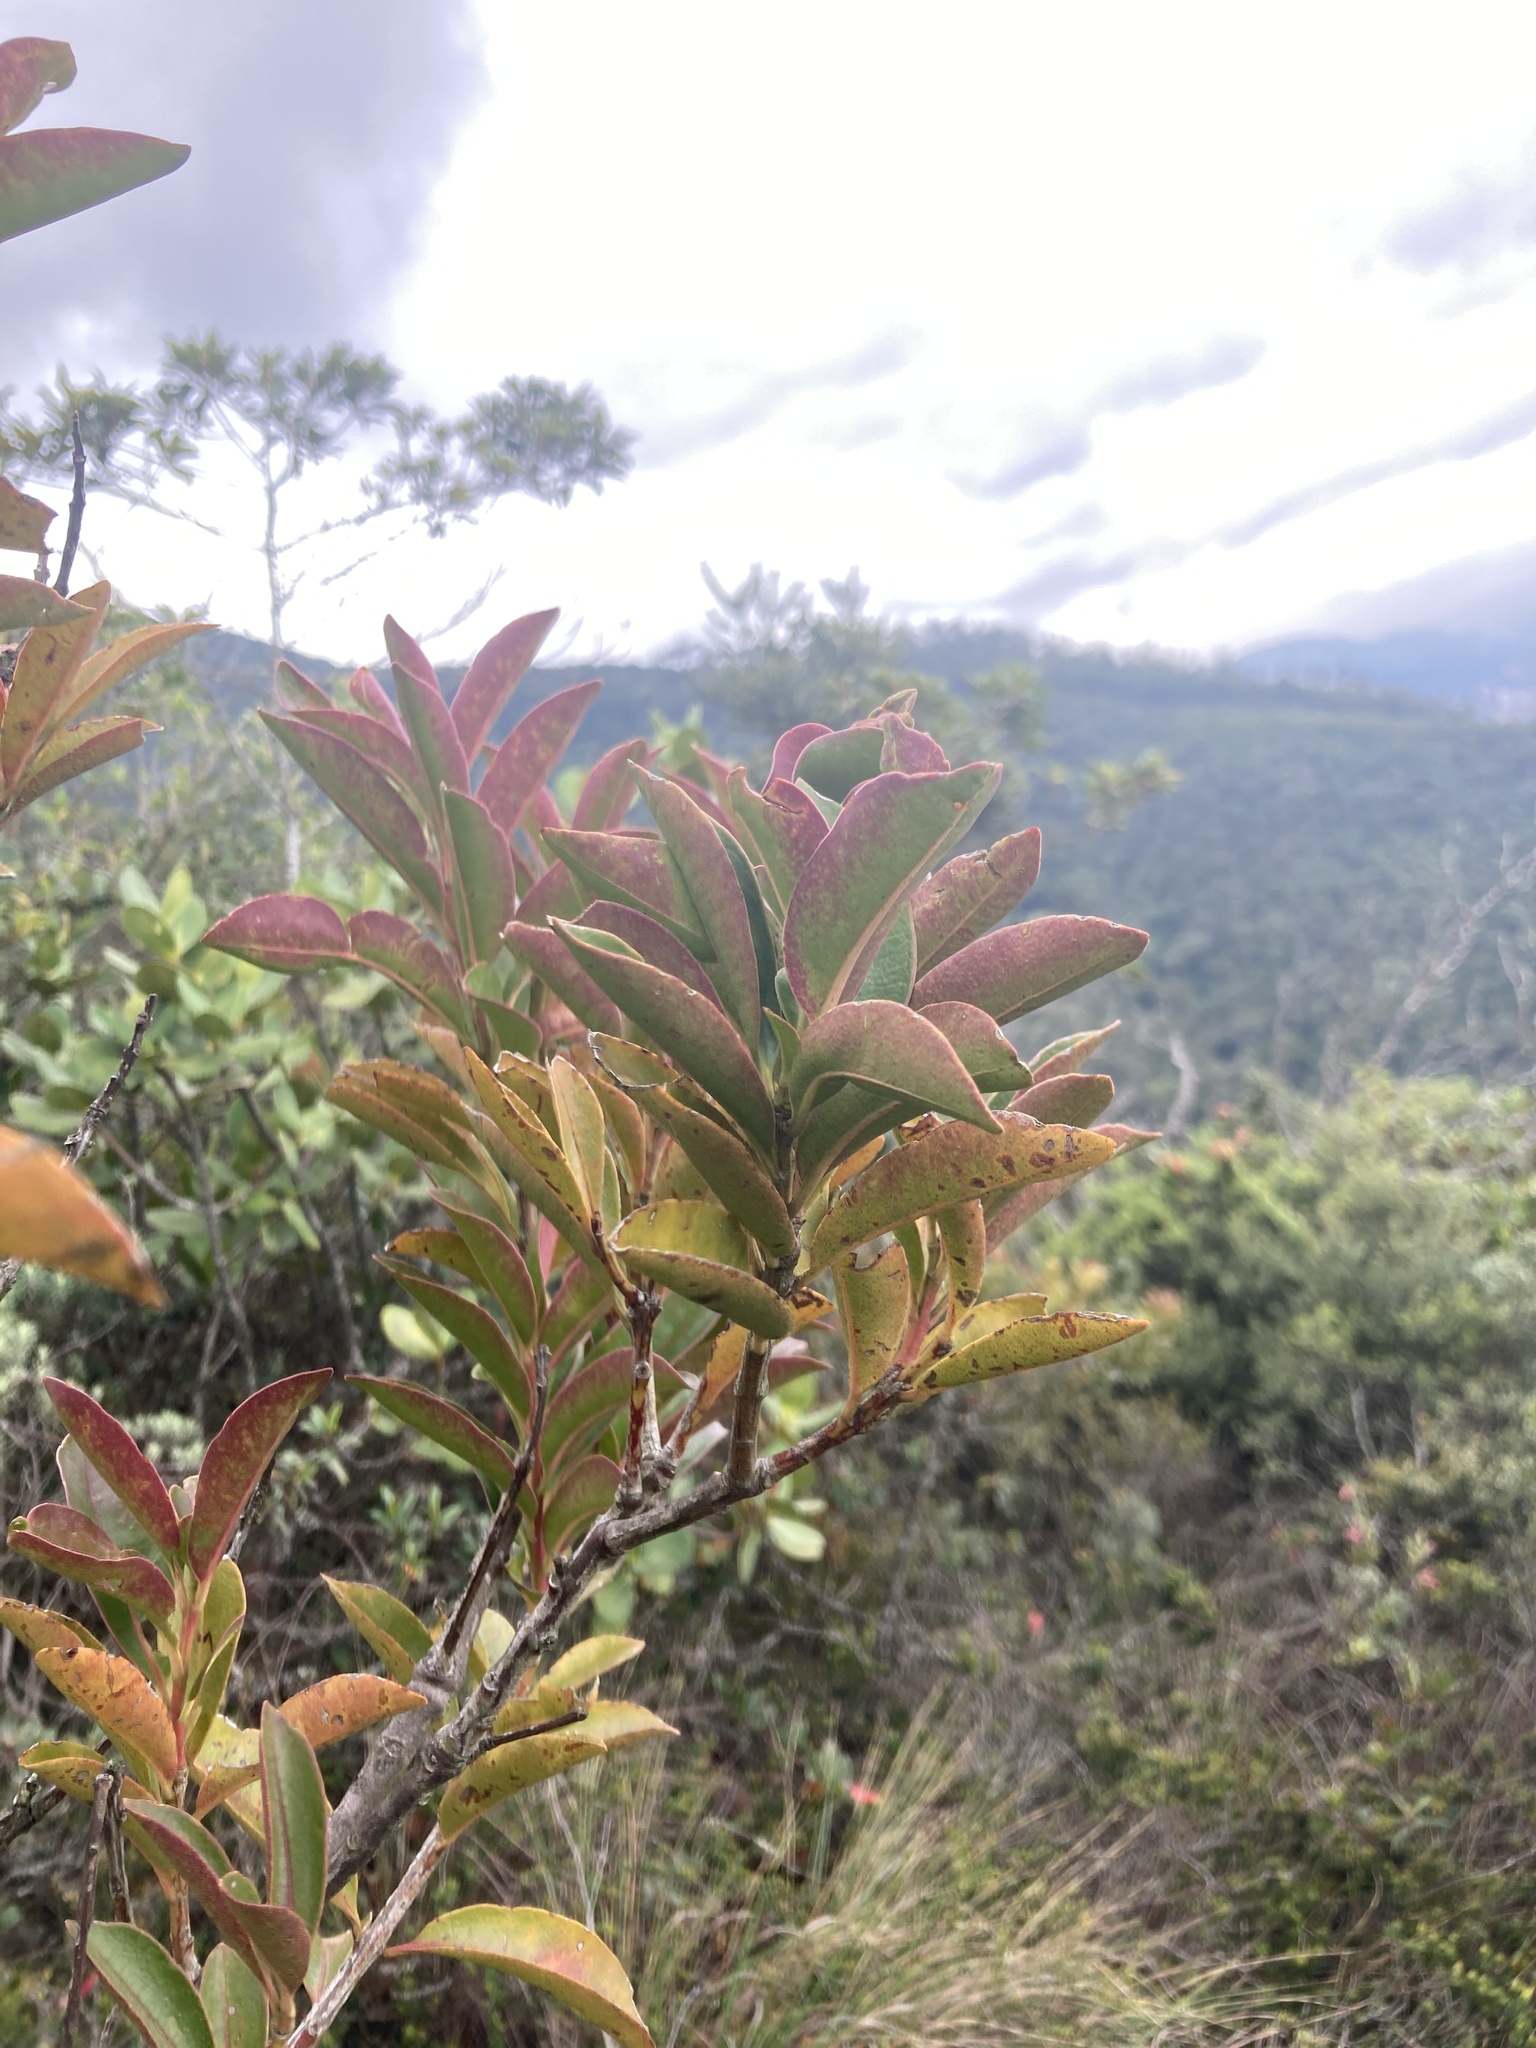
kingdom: Plantae
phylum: Tracheophyta
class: Magnoliopsida
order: Santalales
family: Loranthaceae
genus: Gaiadendron
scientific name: Gaiadendron punctatum
